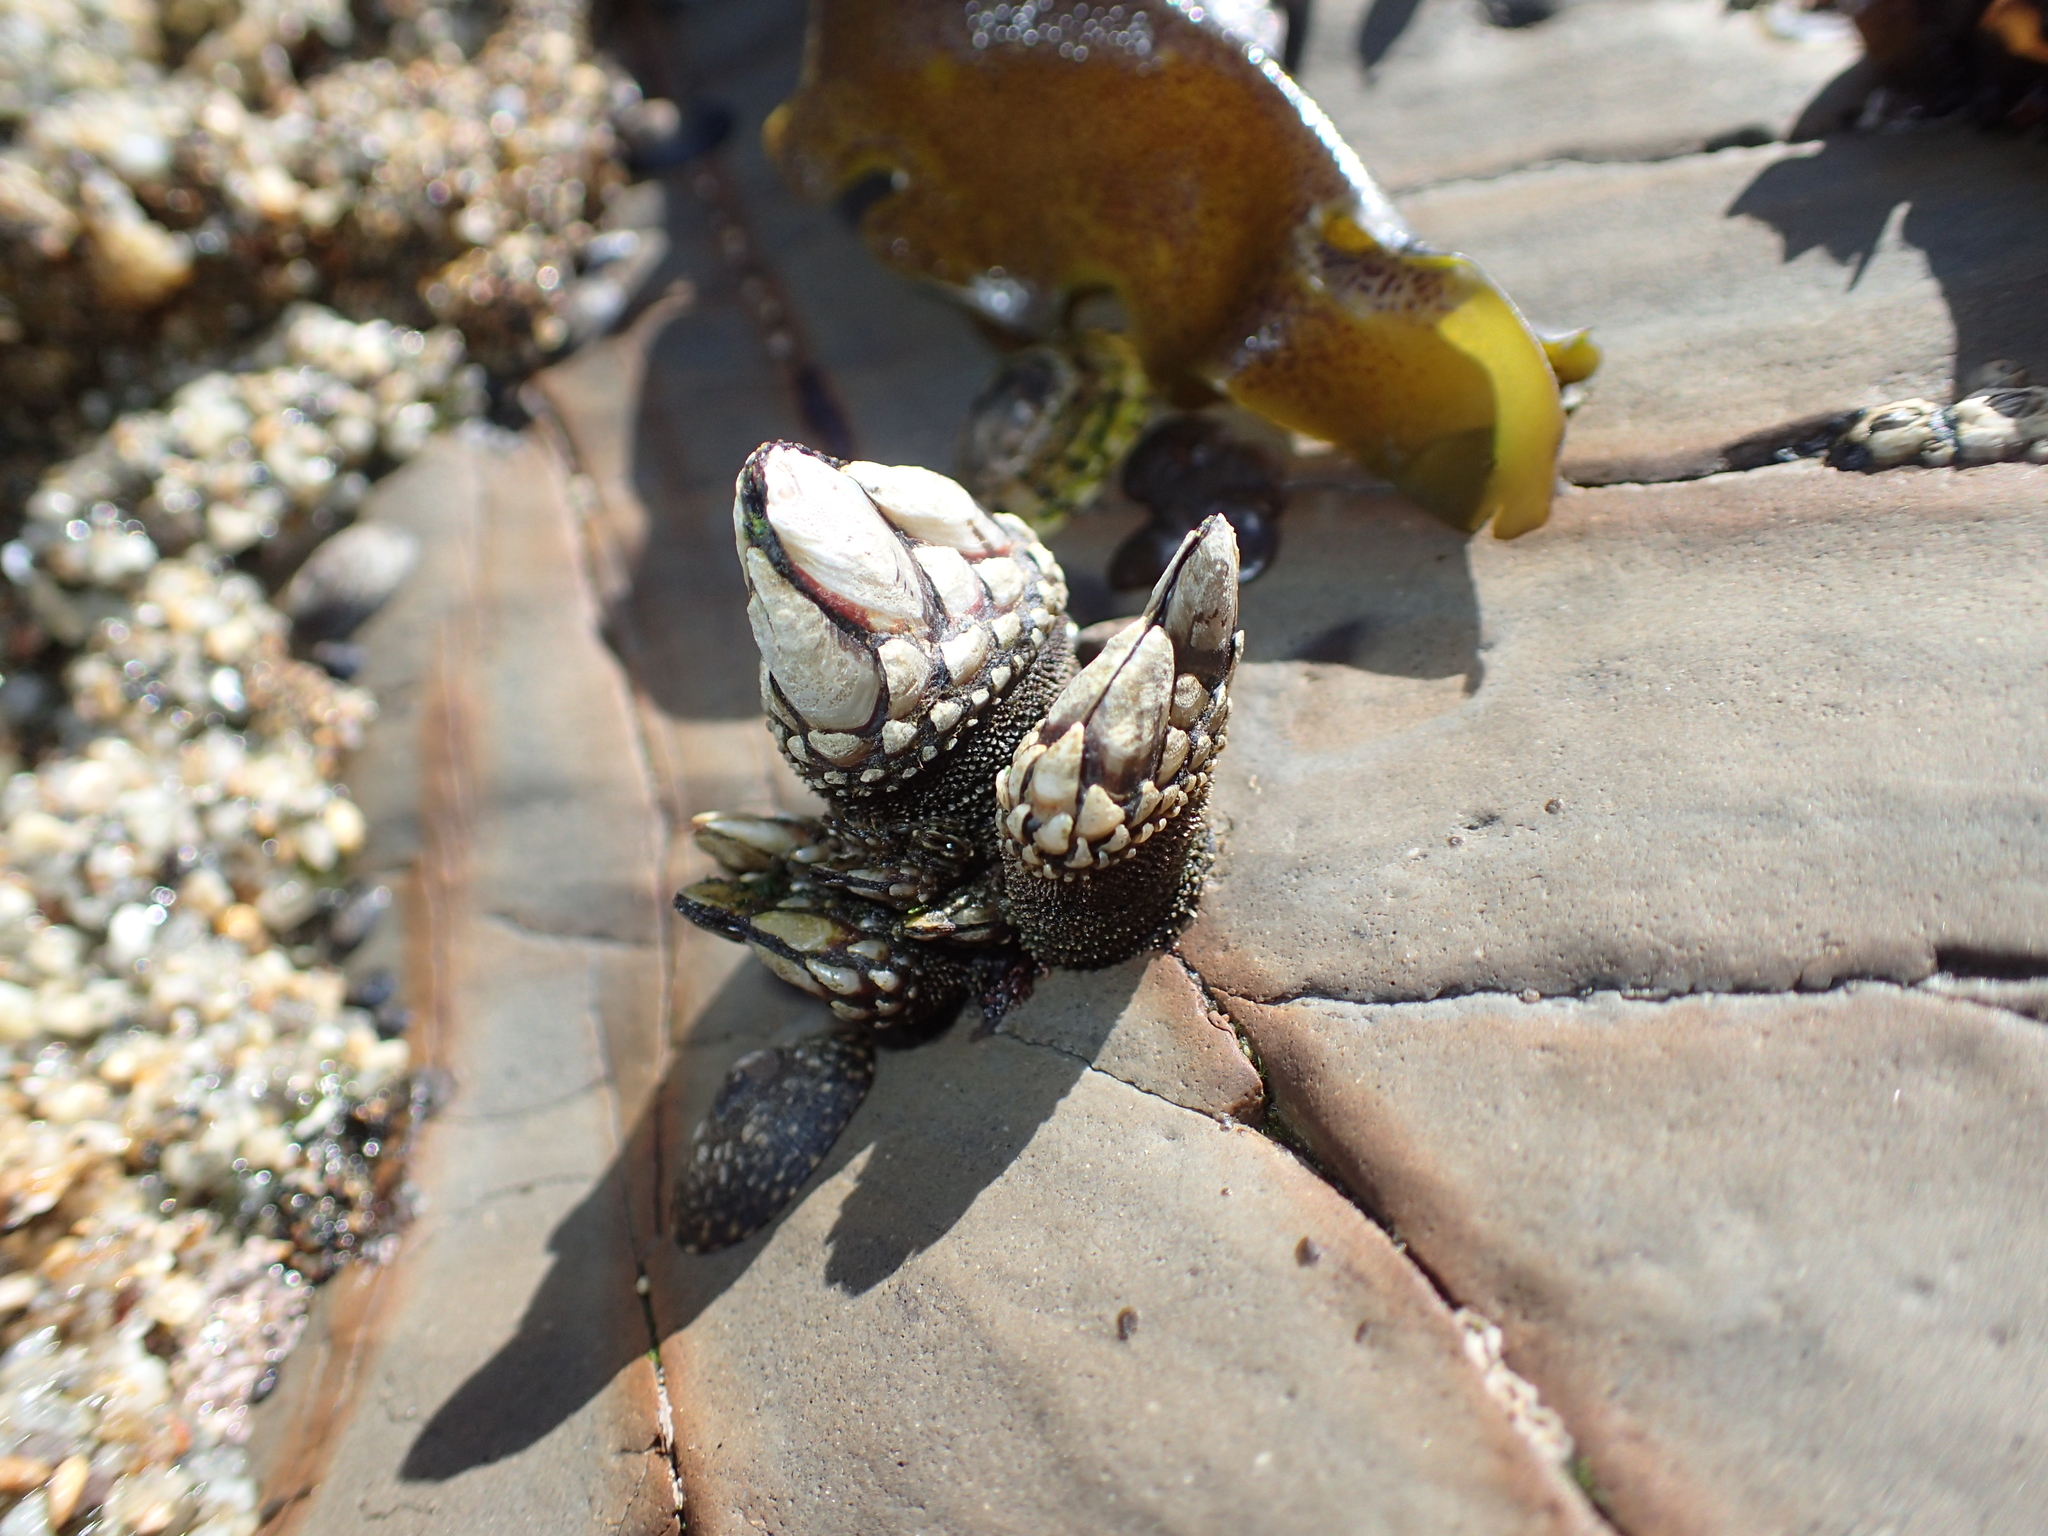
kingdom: Animalia
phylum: Arthropoda
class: Maxillopoda
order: Pedunculata
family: Pollicipedidae
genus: Pollicipes
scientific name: Pollicipes polymerus
